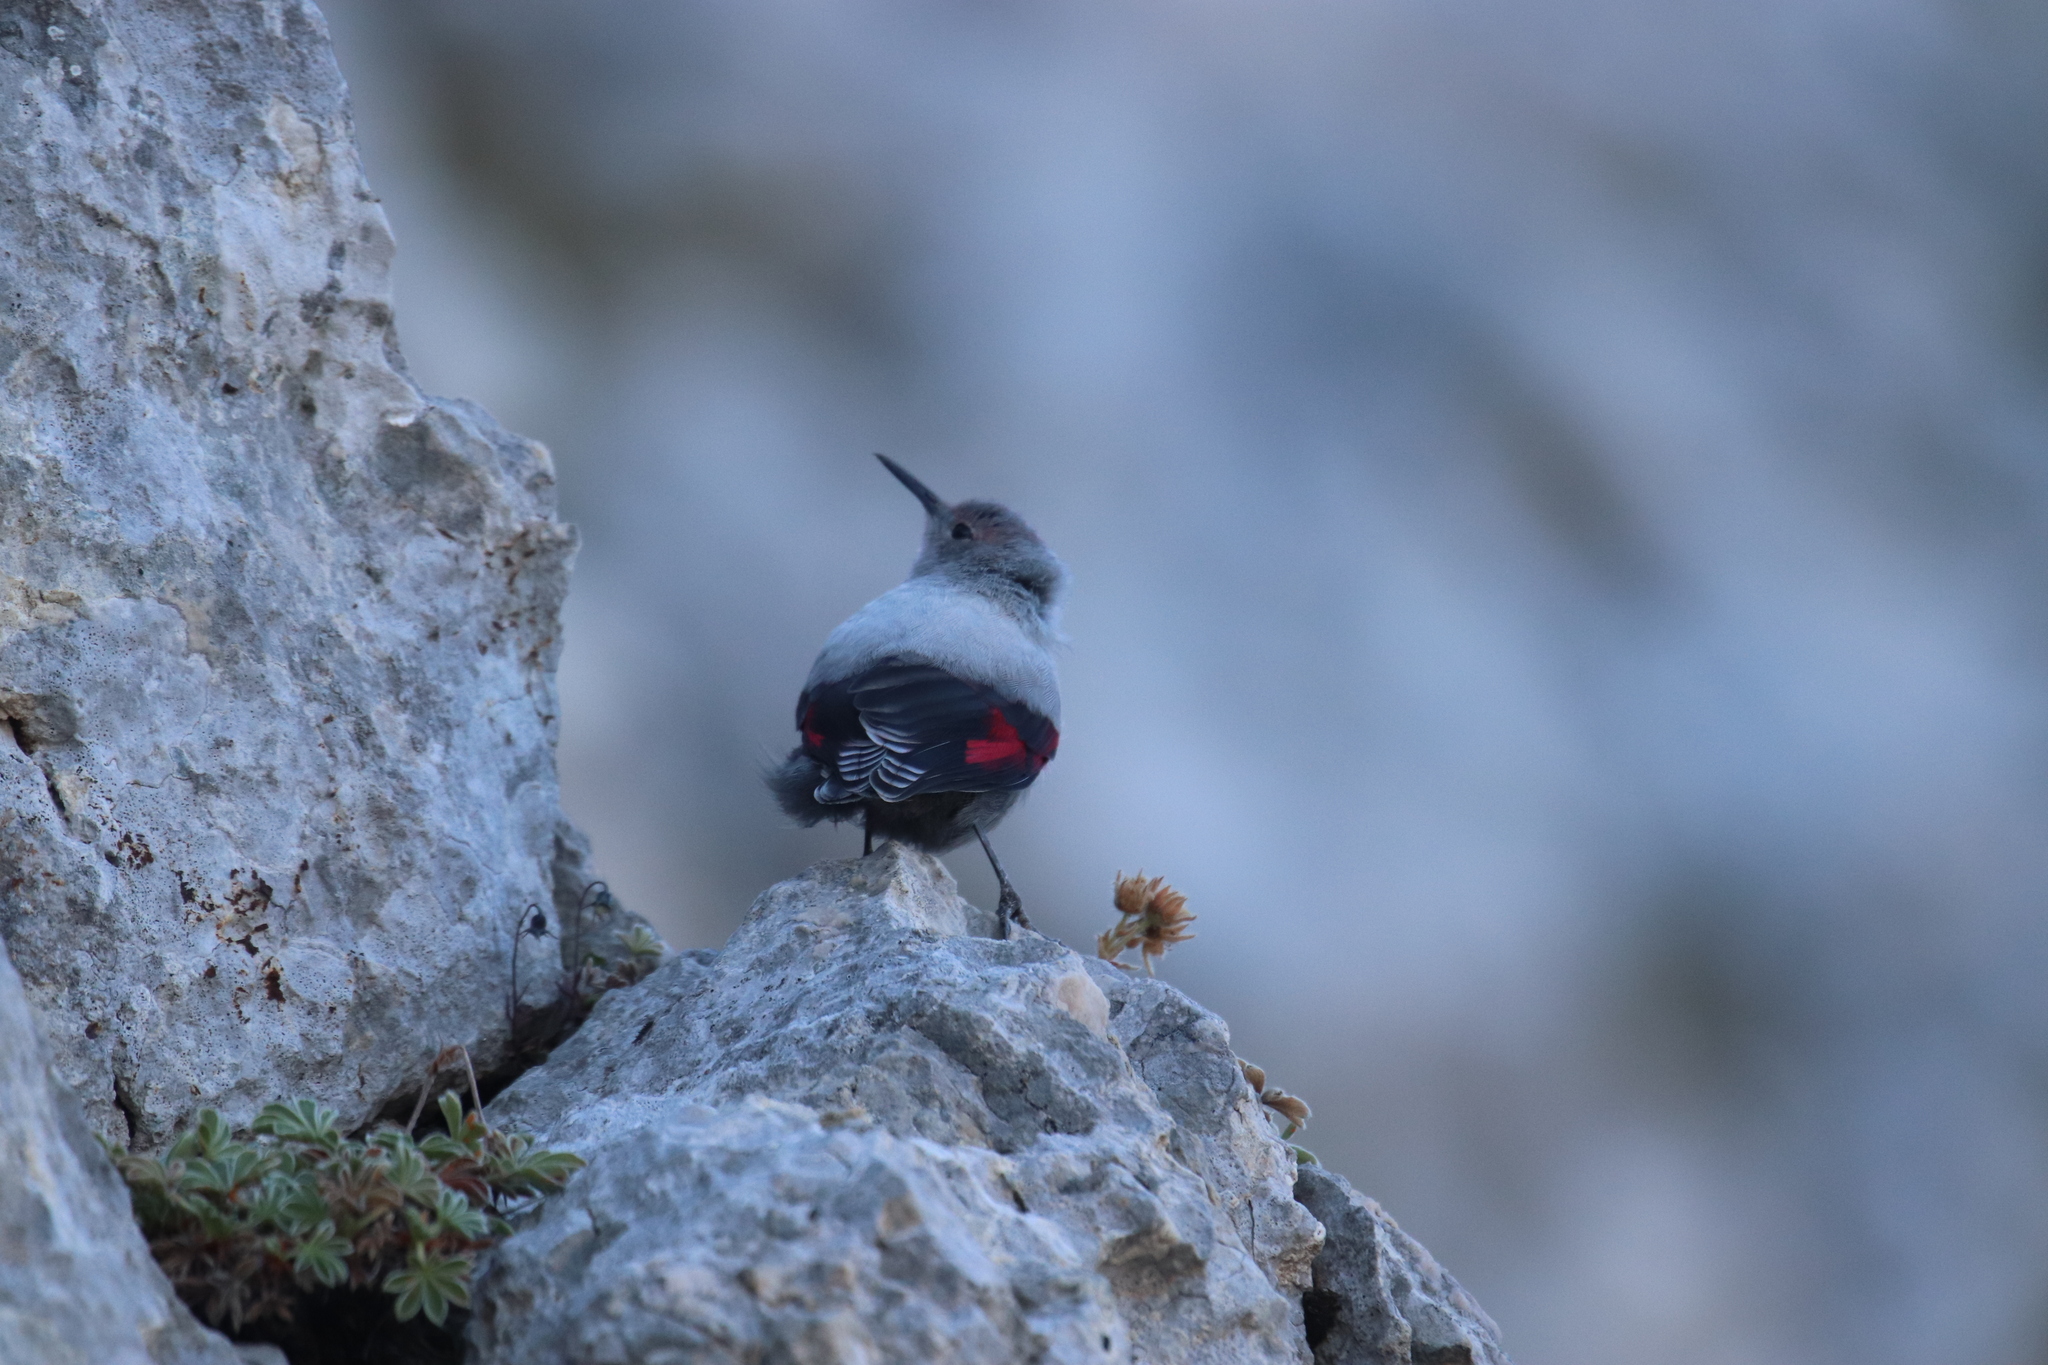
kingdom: Animalia
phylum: Chordata
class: Aves
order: Passeriformes
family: Tichodromidae
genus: Tichodroma
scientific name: Tichodroma muraria
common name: Wallcreeper
